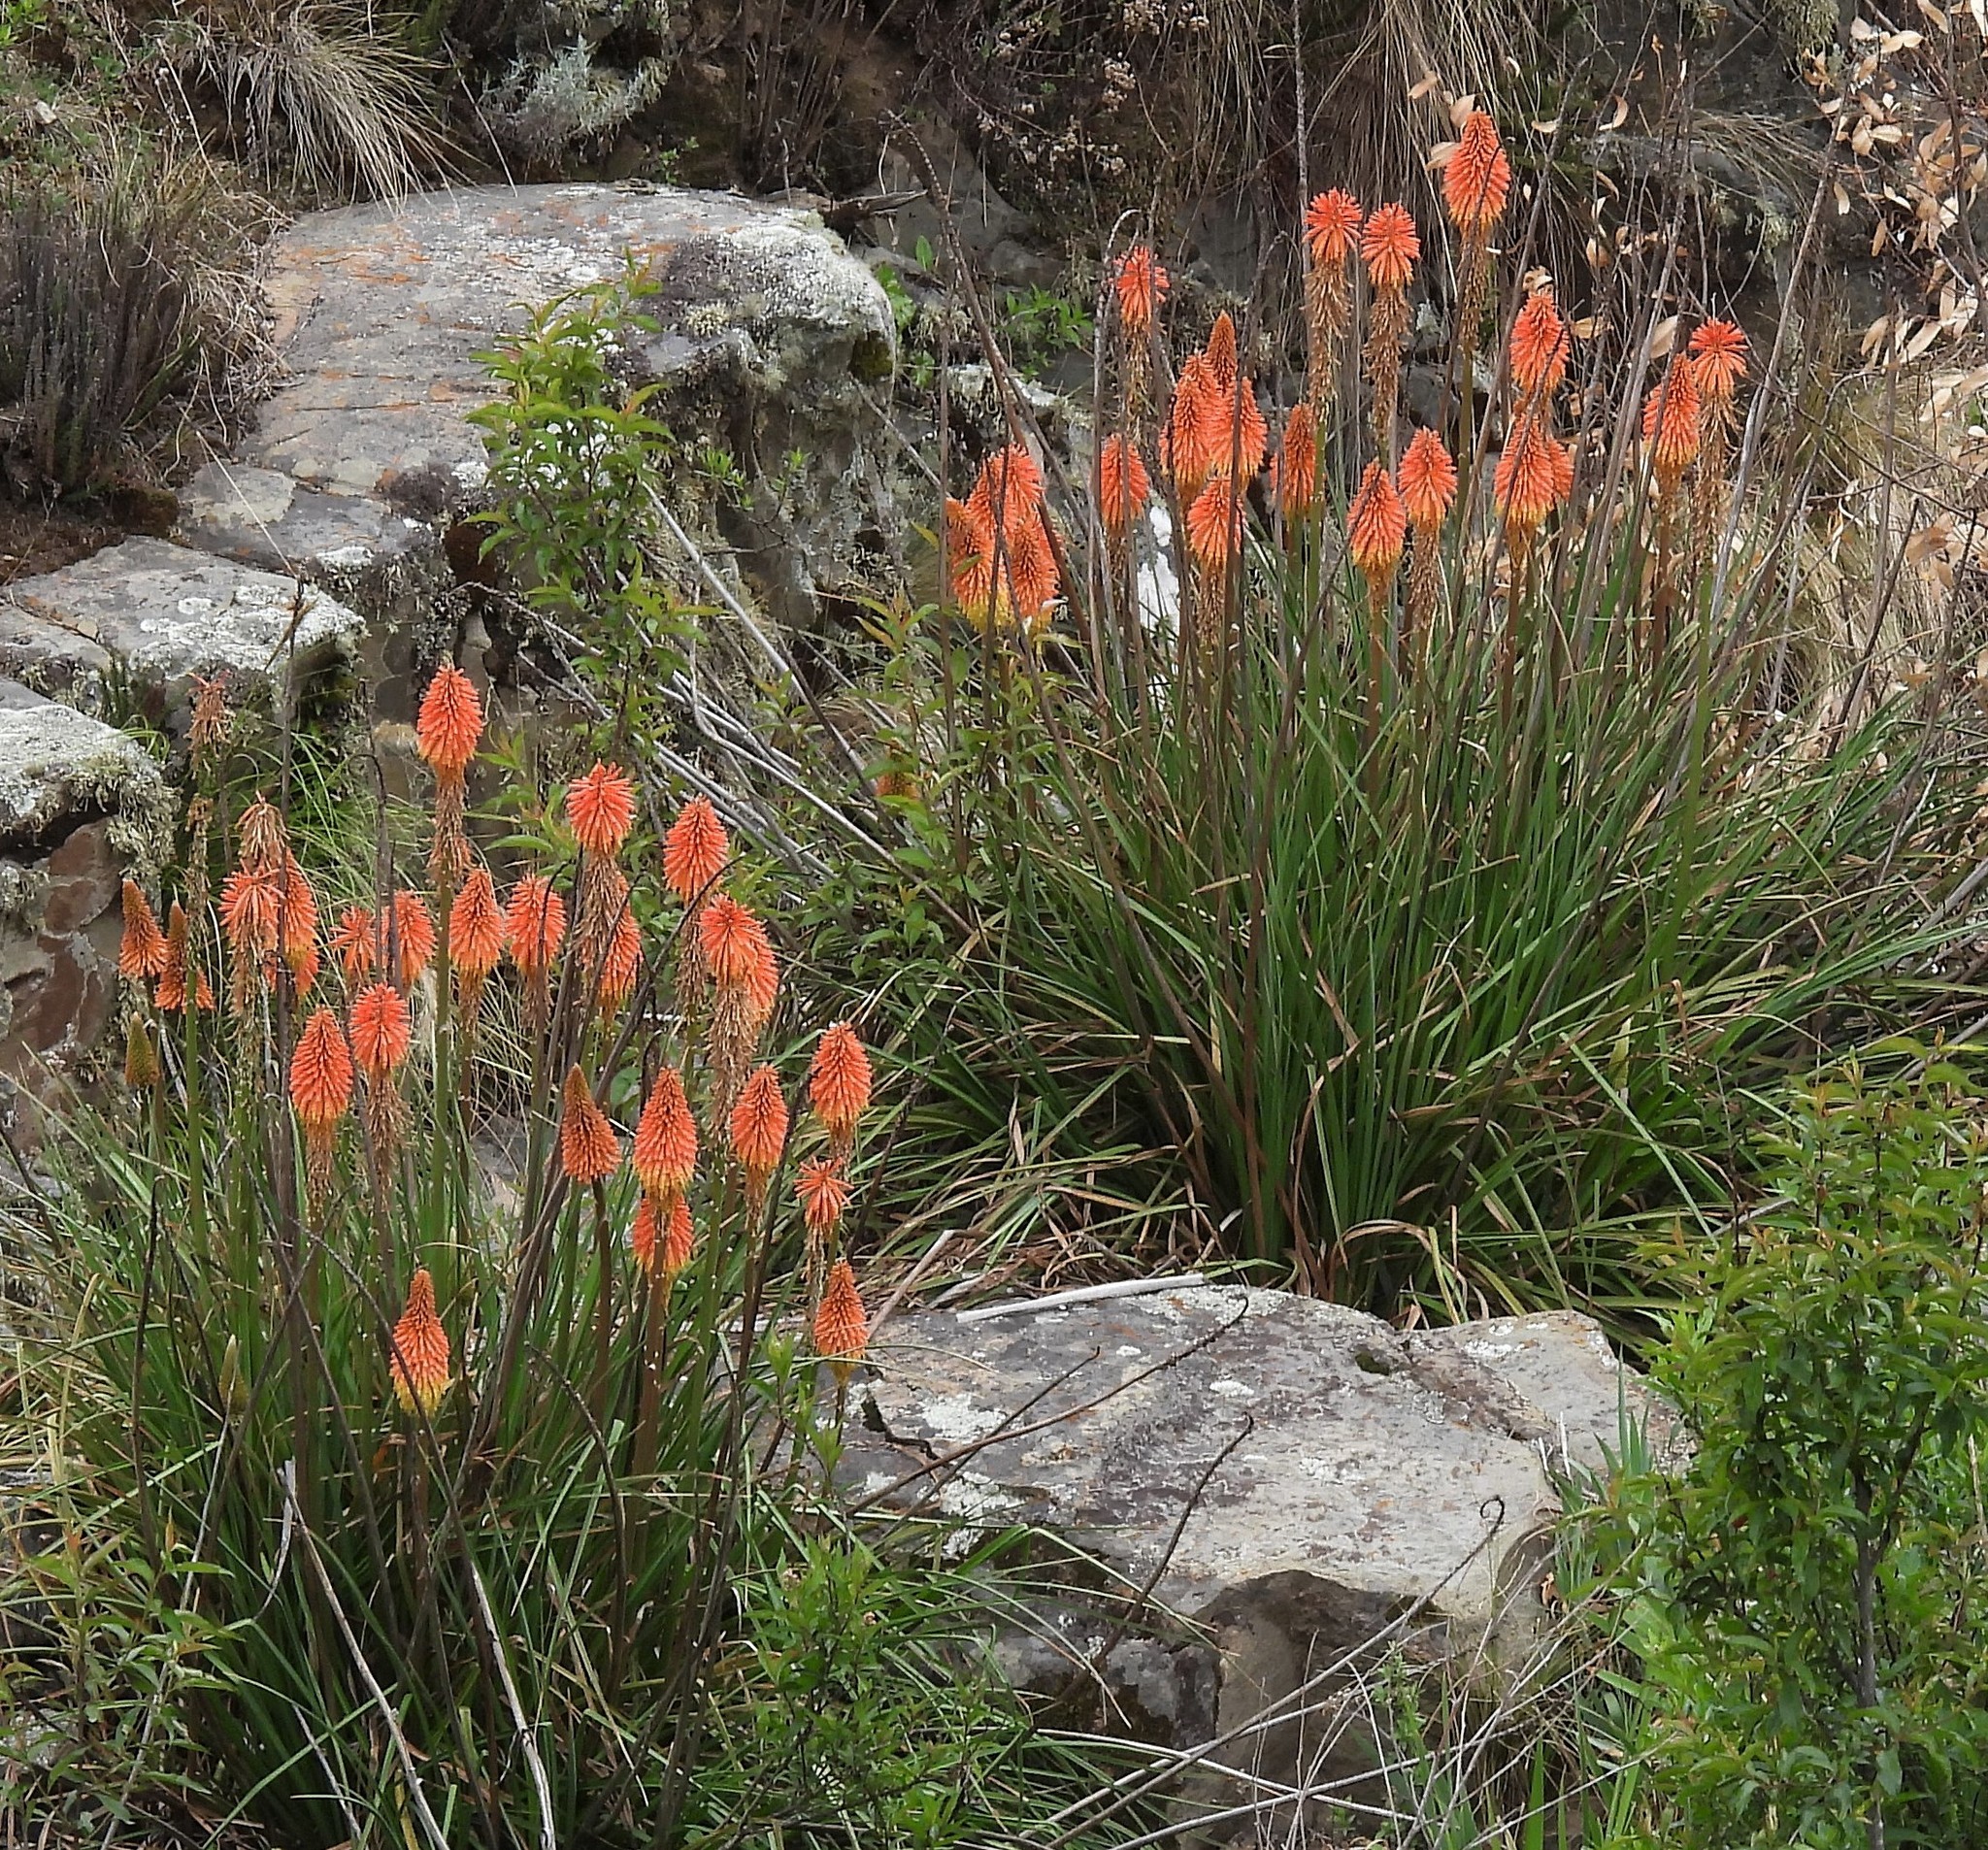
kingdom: Plantae
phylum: Tracheophyta
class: Liliopsida
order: Asparagales
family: Asphodelaceae
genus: Kniphofia
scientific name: Kniphofia uvaria
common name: Red-hot-poker
